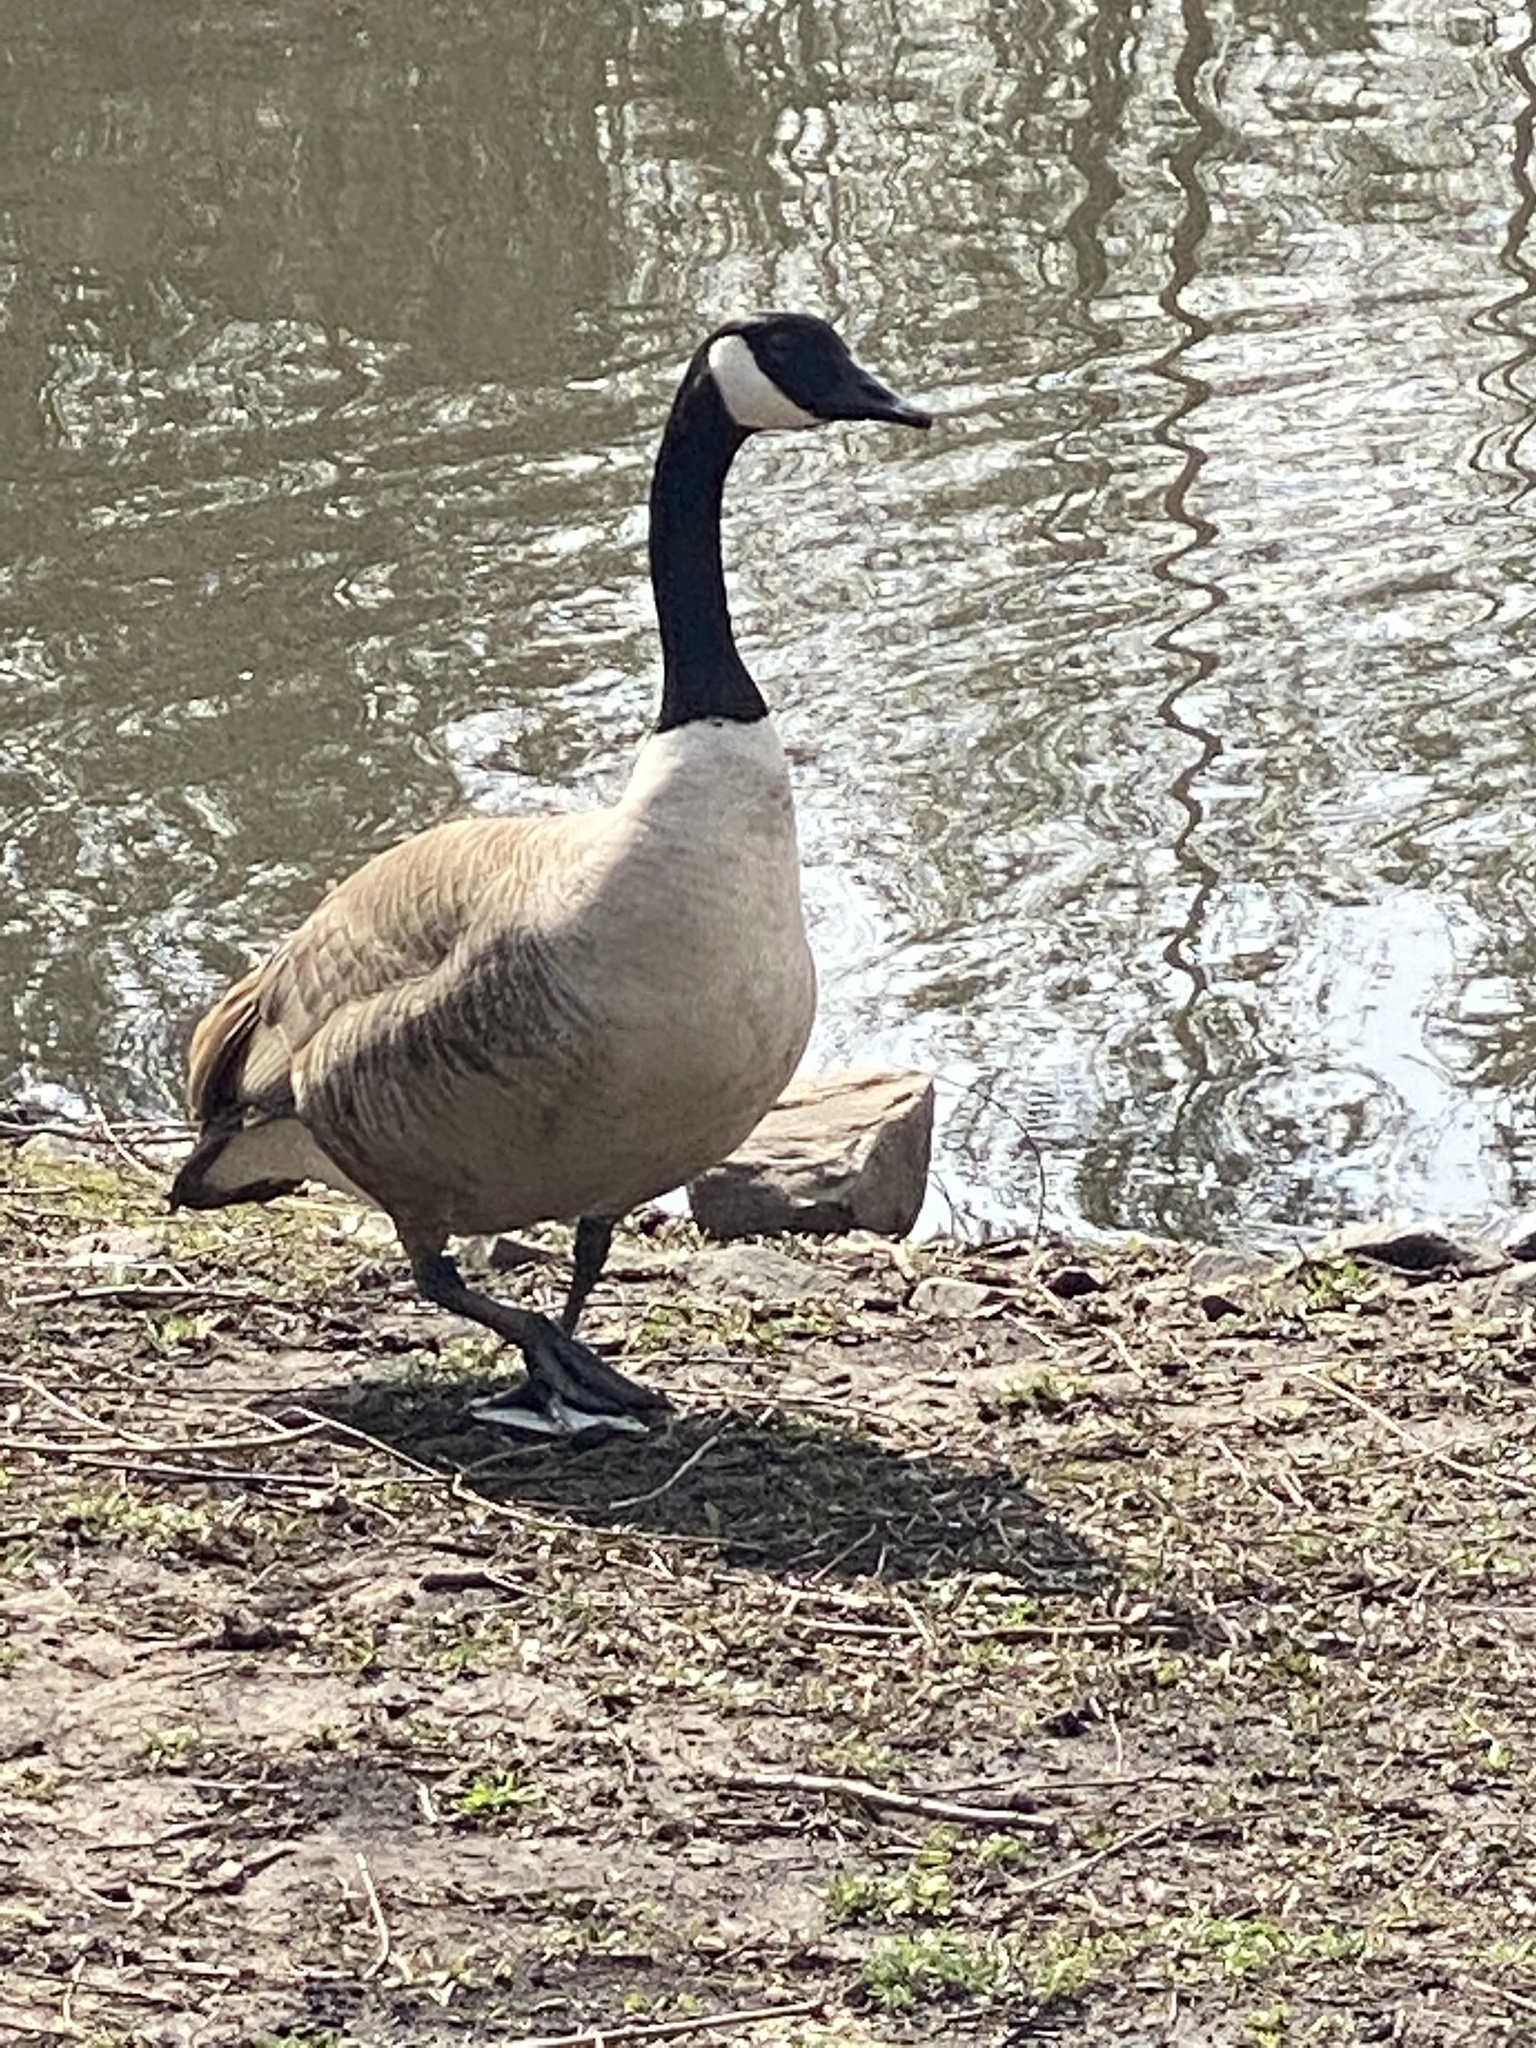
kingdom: Animalia
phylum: Chordata
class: Aves
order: Anseriformes
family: Anatidae
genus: Branta
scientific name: Branta canadensis
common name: Canada goose
